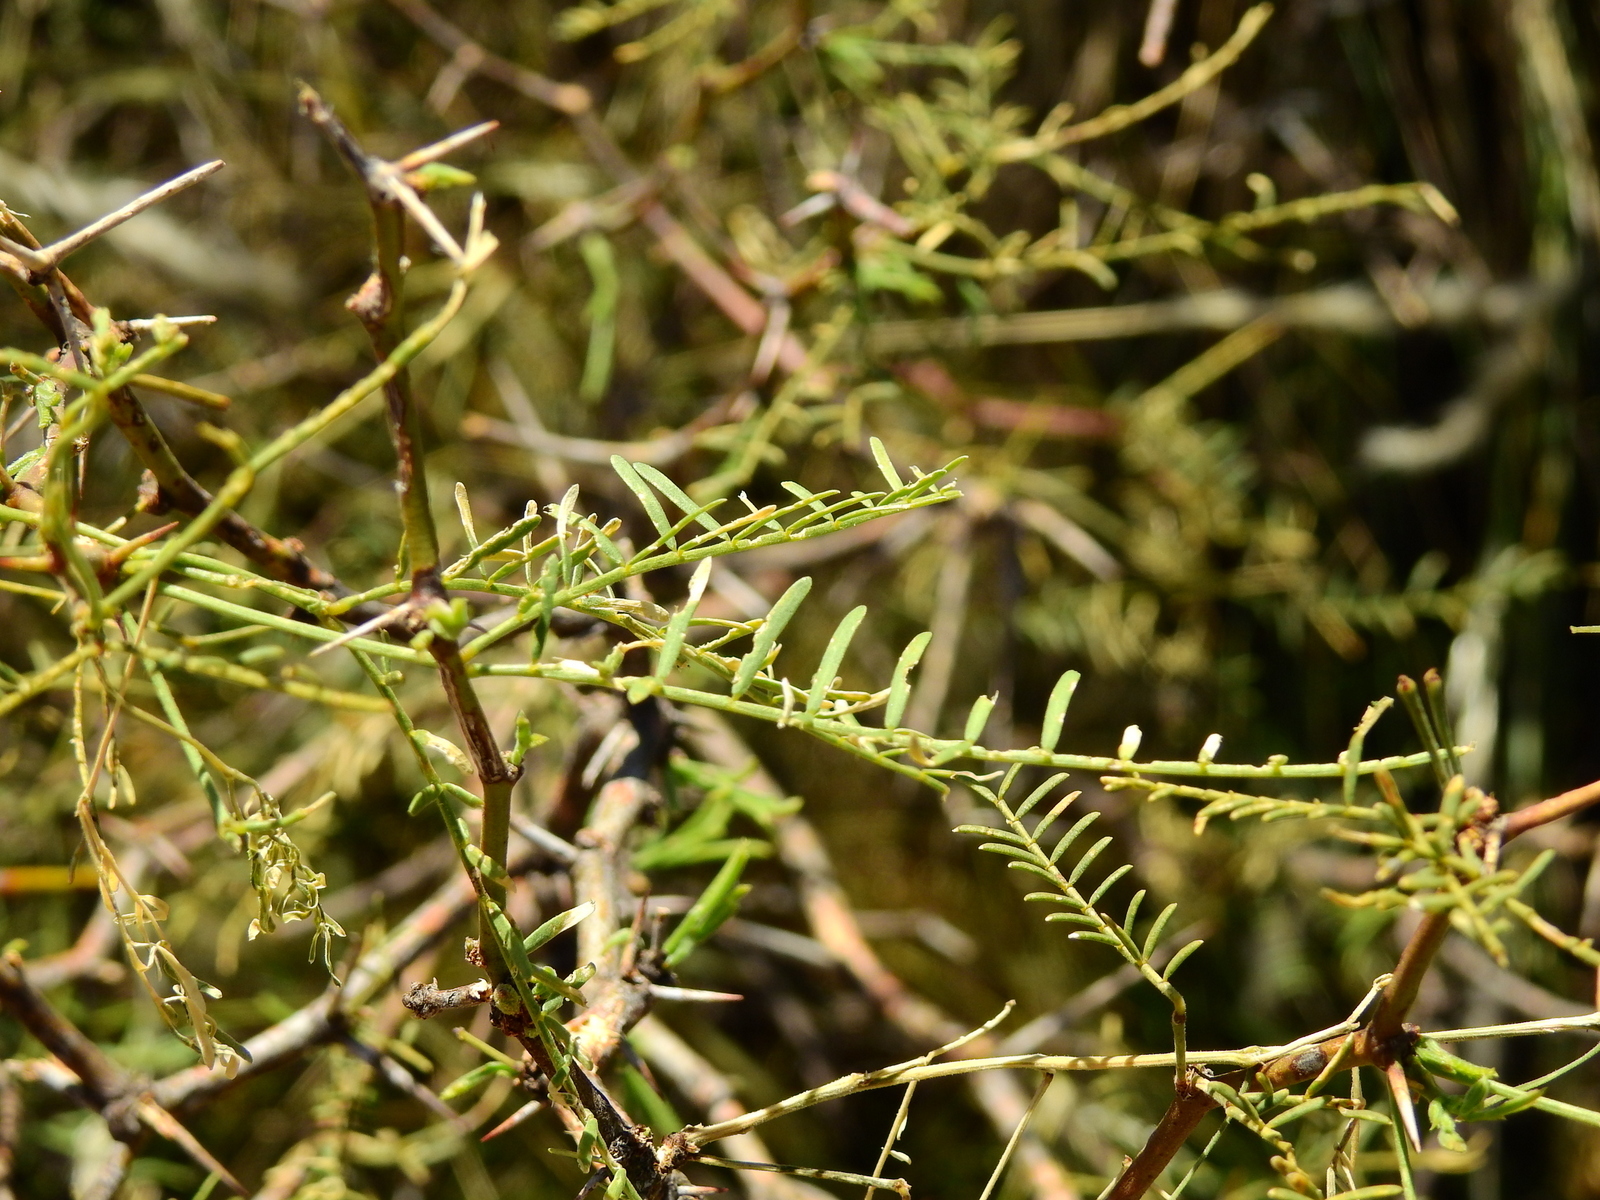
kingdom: Plantae
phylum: Tracheophyta
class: Magnoliopsida
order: Fabales
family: Fabaceae
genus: Prosopis
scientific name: Prosopis flexuosa
